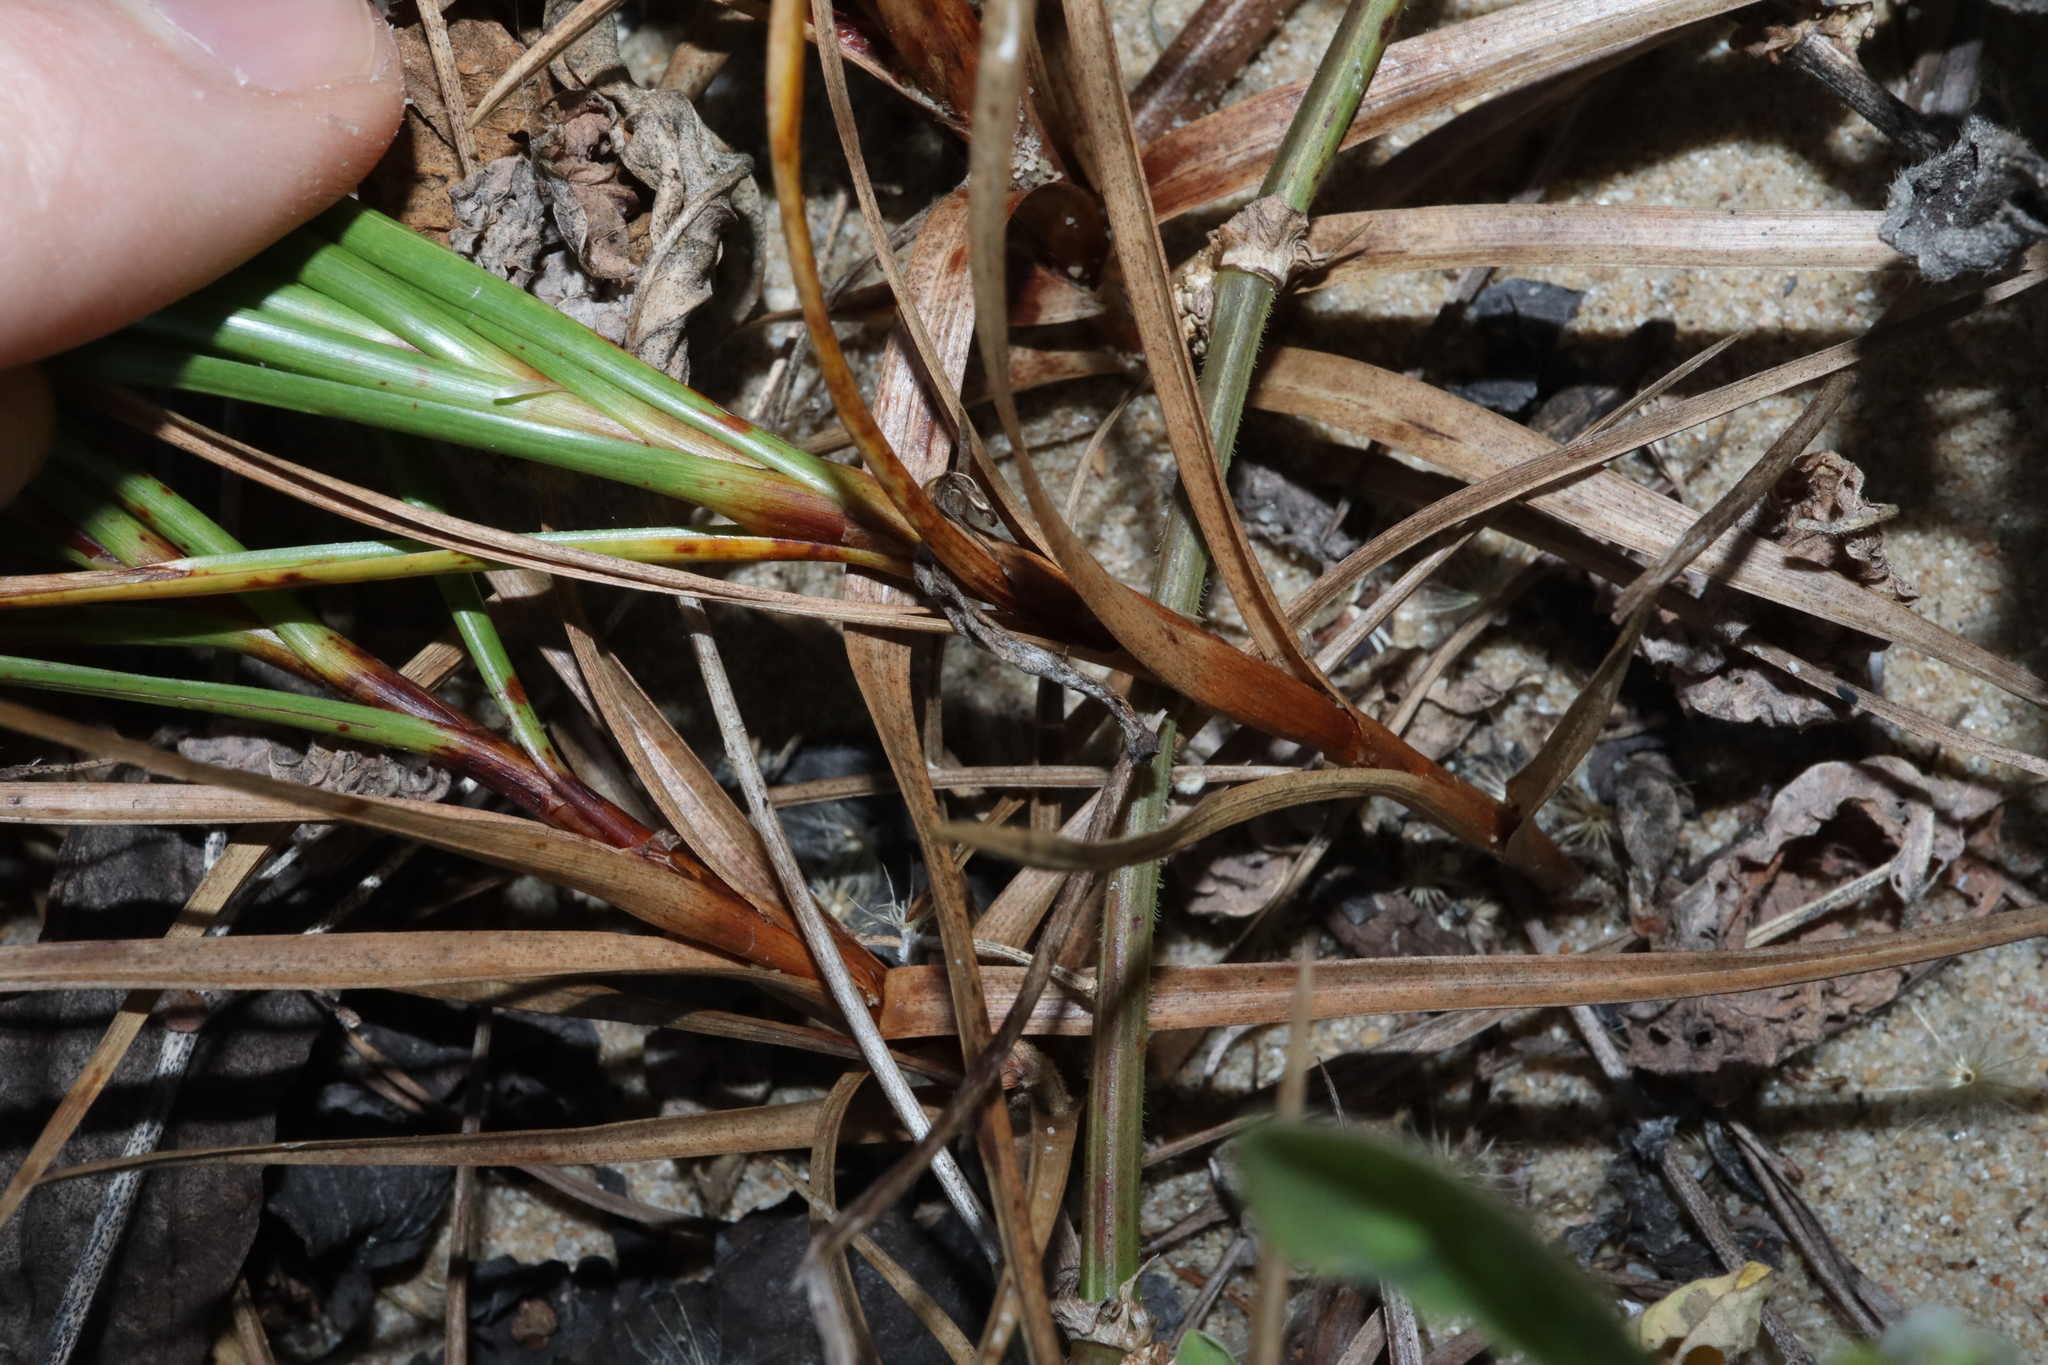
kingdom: Plantae
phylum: Tracheophyta
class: Liliopsida
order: Poales
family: Cyperaceae
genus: Cyperus
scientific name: Cyperus pedunculatus
